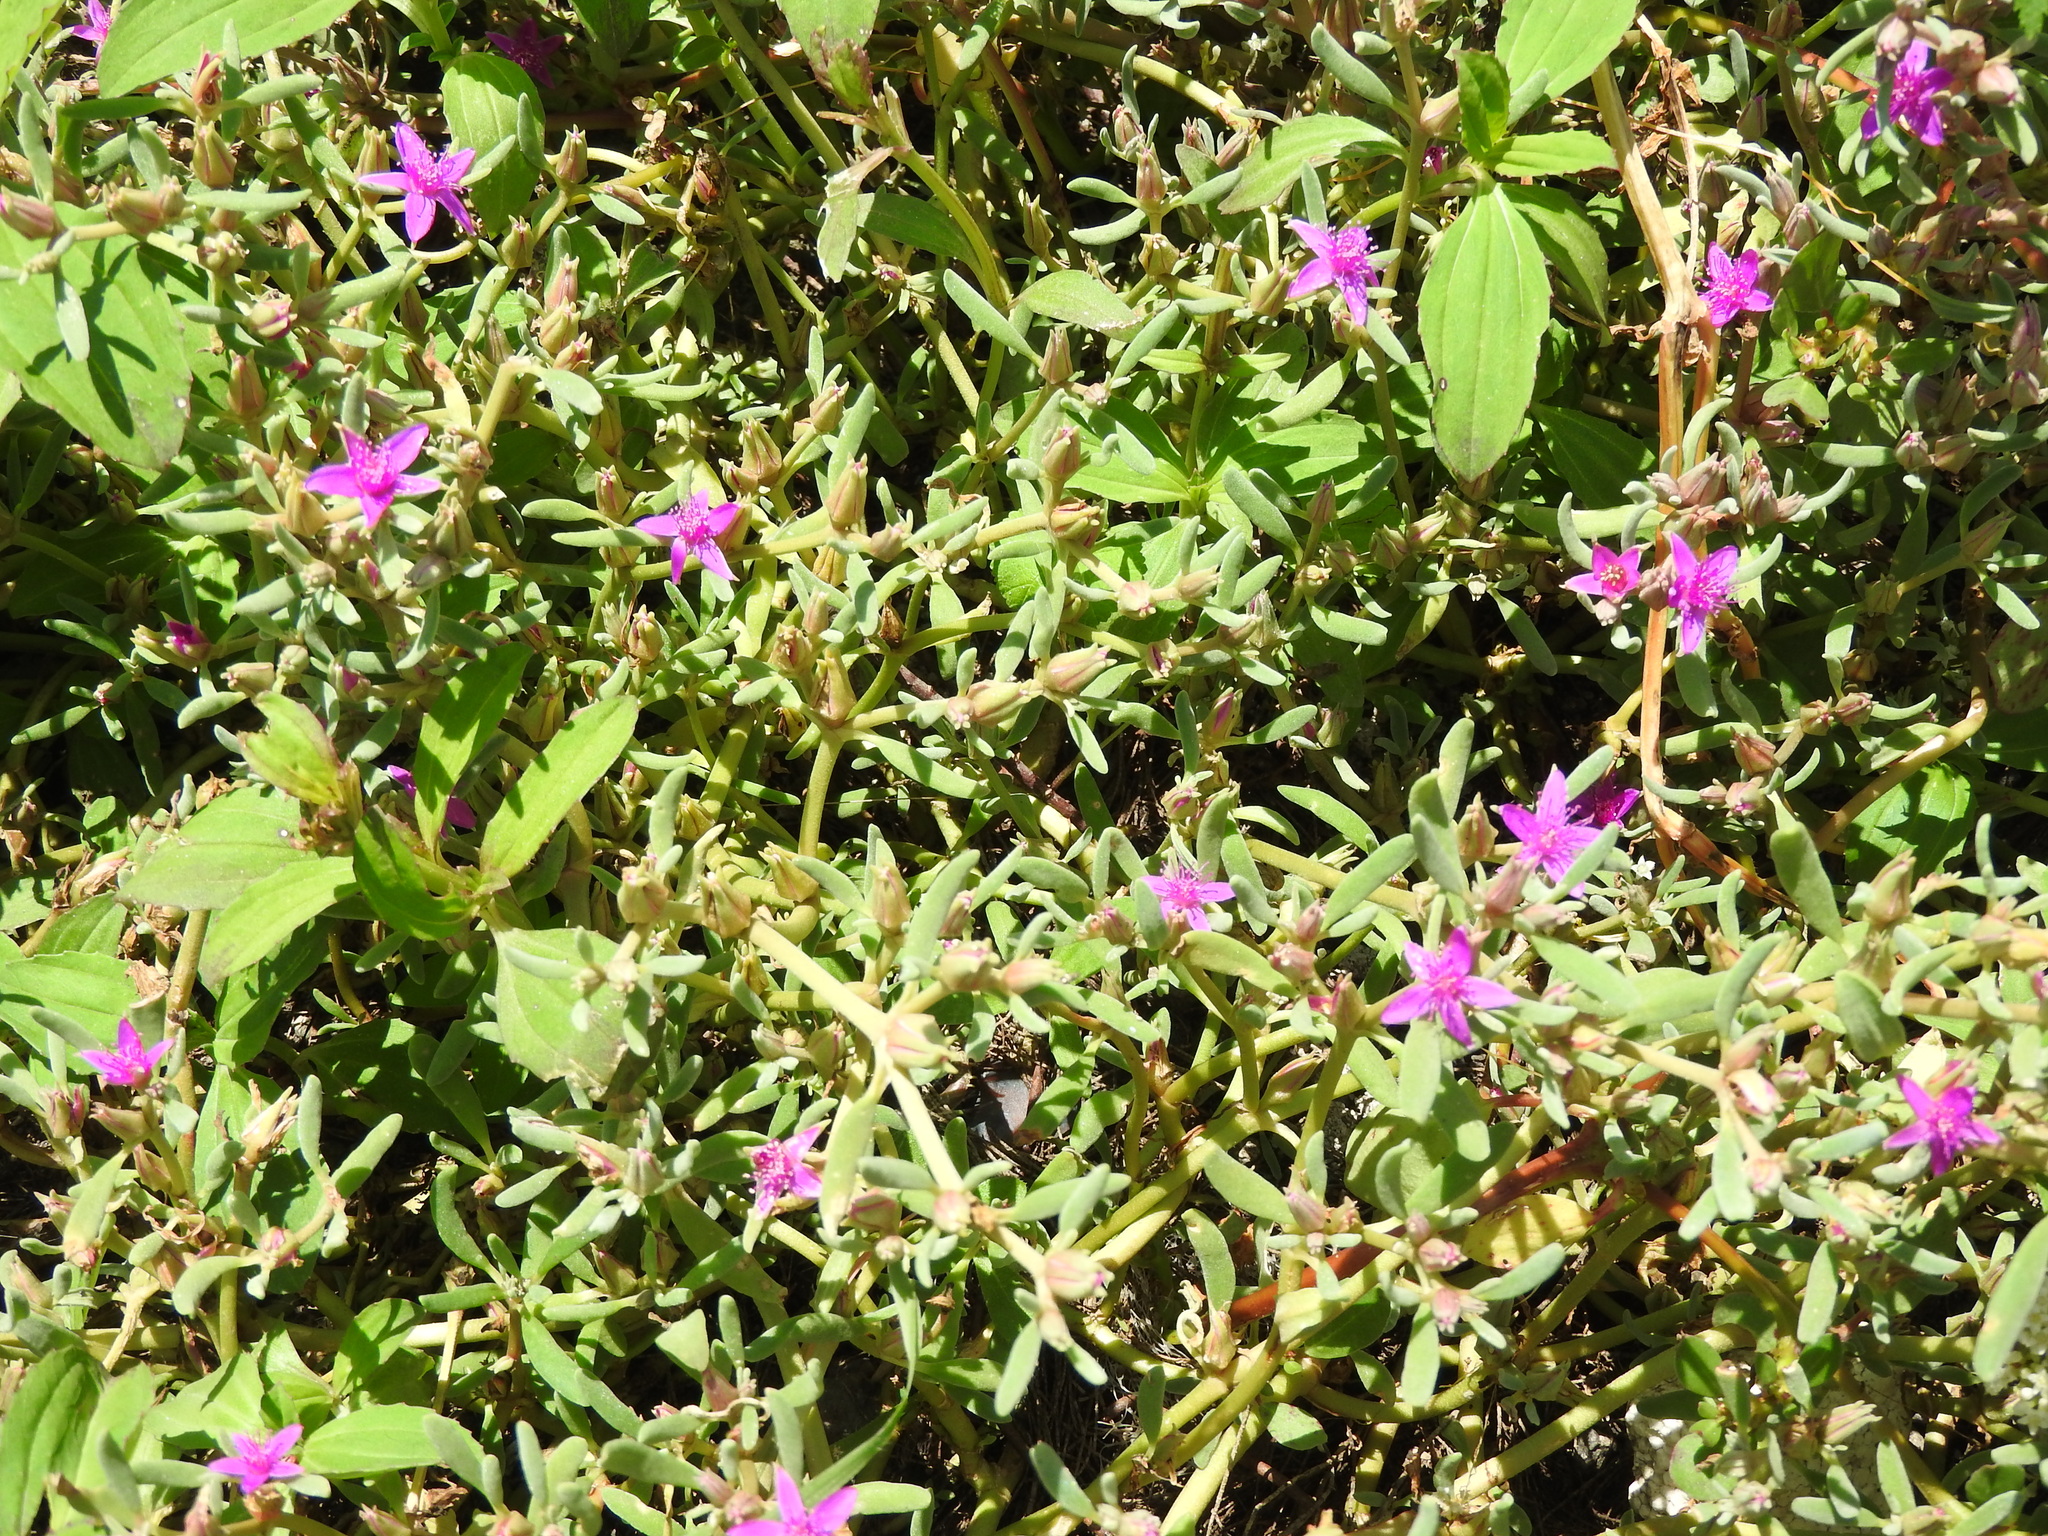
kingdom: Plantae
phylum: Tracheophyta
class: Magnoliopsida
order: Caryophyllales
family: Aizoaceae
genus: Sesuvium
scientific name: Sesuvium revolutifolium
